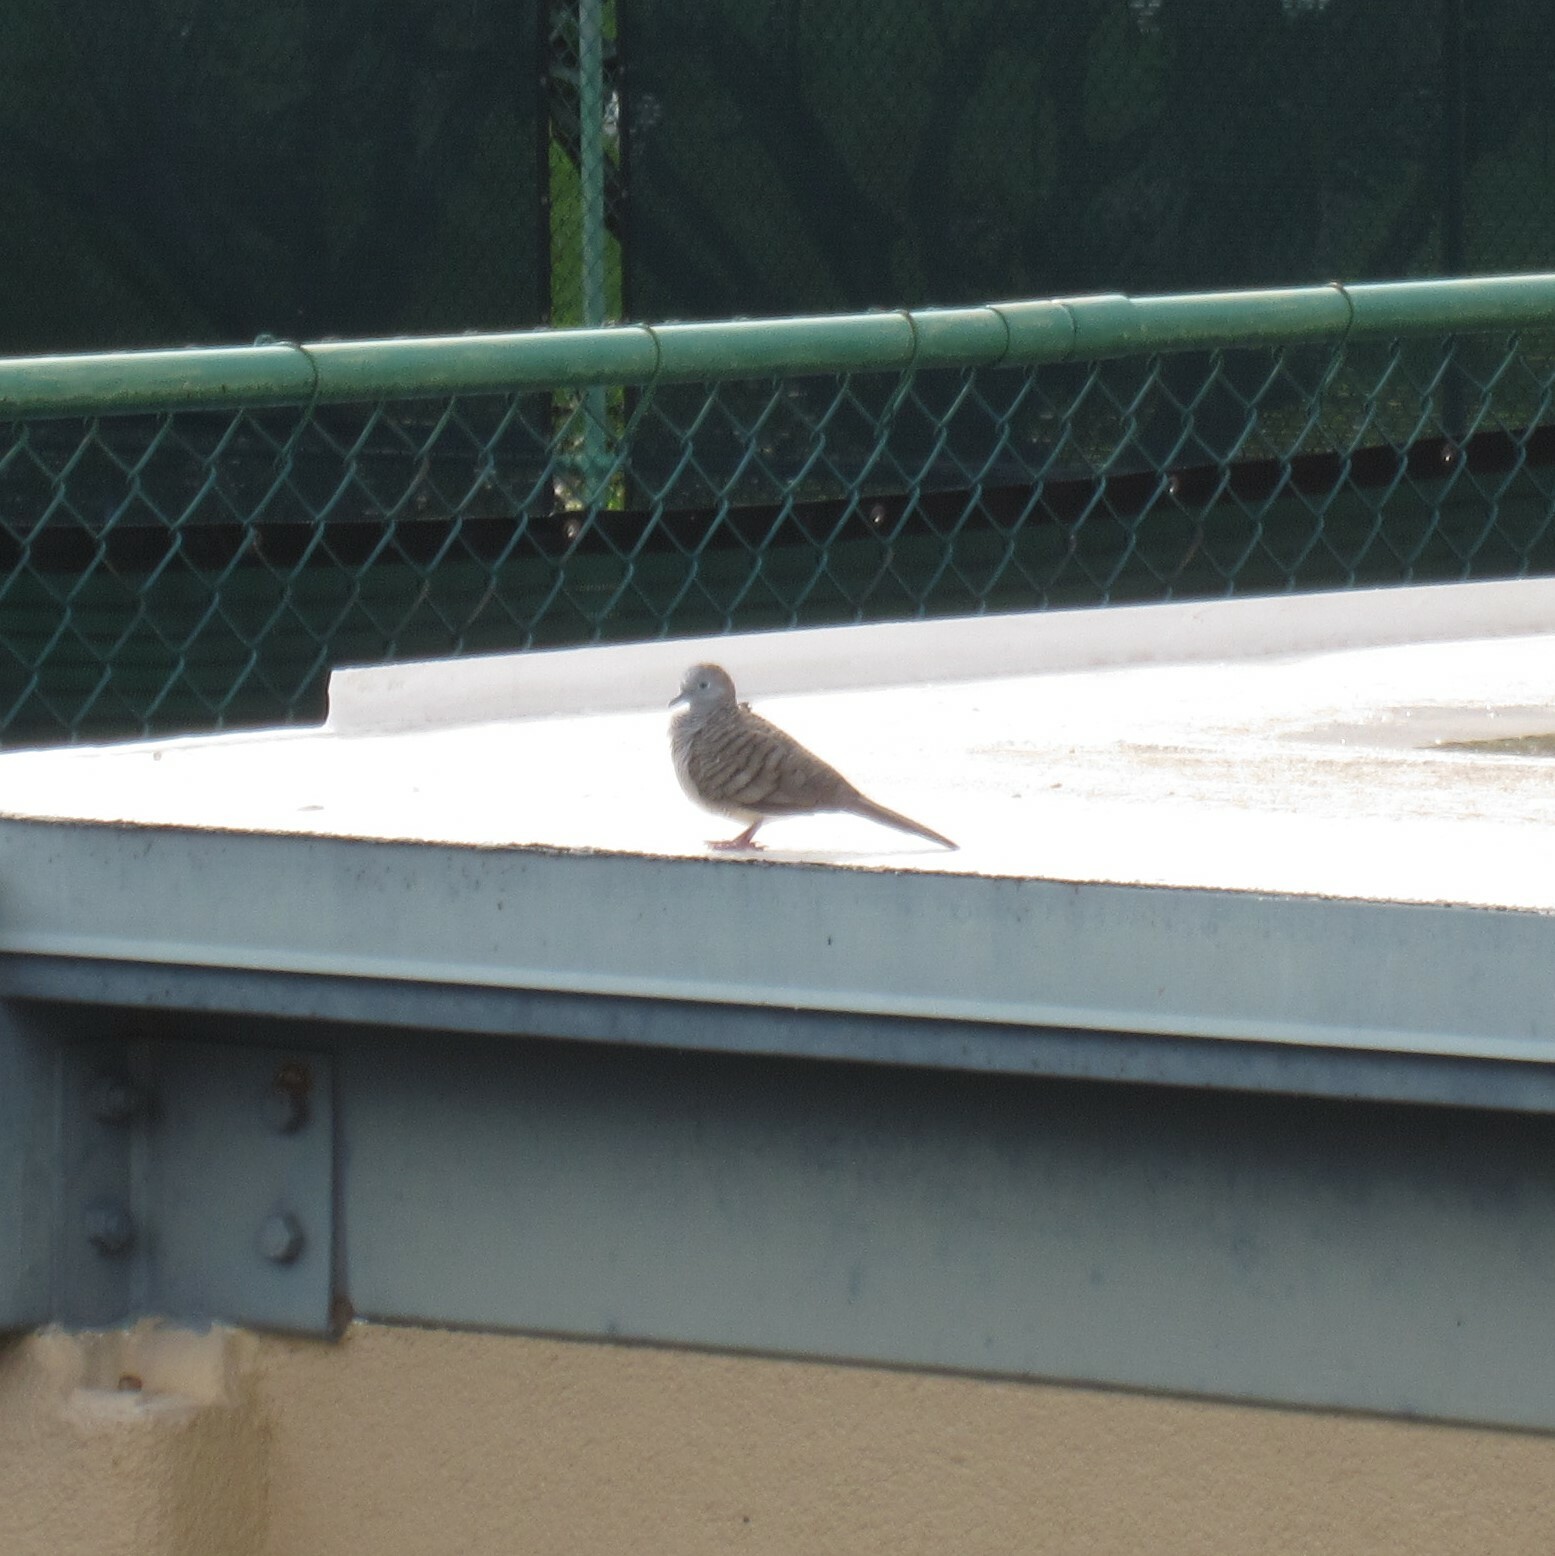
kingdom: Animalia
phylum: Chordata
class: Aves
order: Columbiformes
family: Columbidae
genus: Geopelia
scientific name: Geopelia striata
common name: Zebra dove
